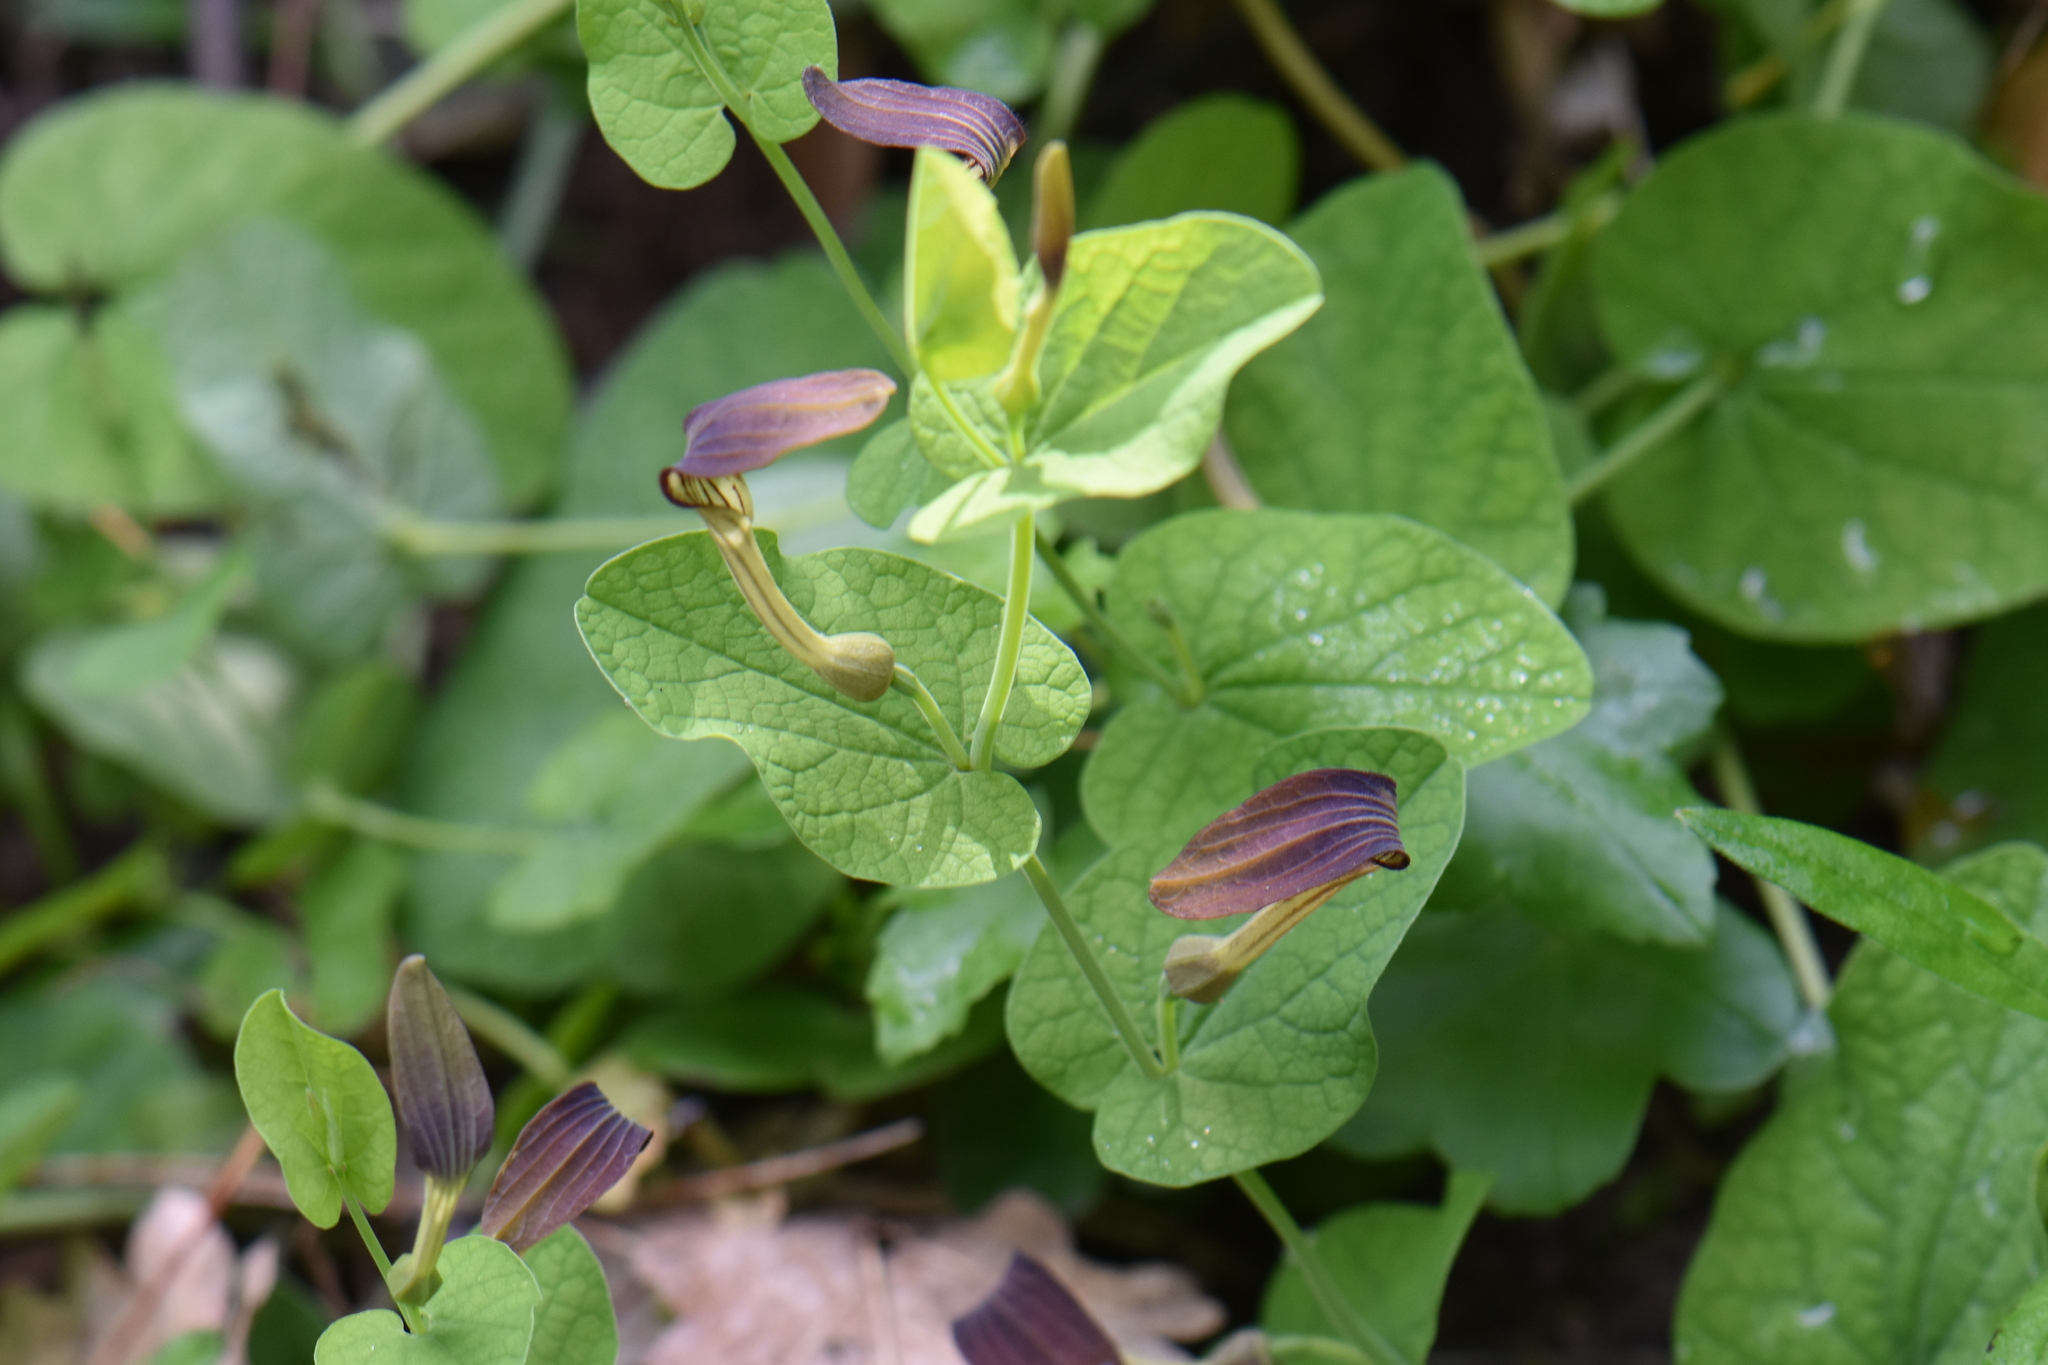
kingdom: Plantae
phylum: Tracheophyta
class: Magnoliopsida
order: Piperales
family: Aristolochiaceae
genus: Aristolochia
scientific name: Aristolochia rotunda
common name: Smearwort
